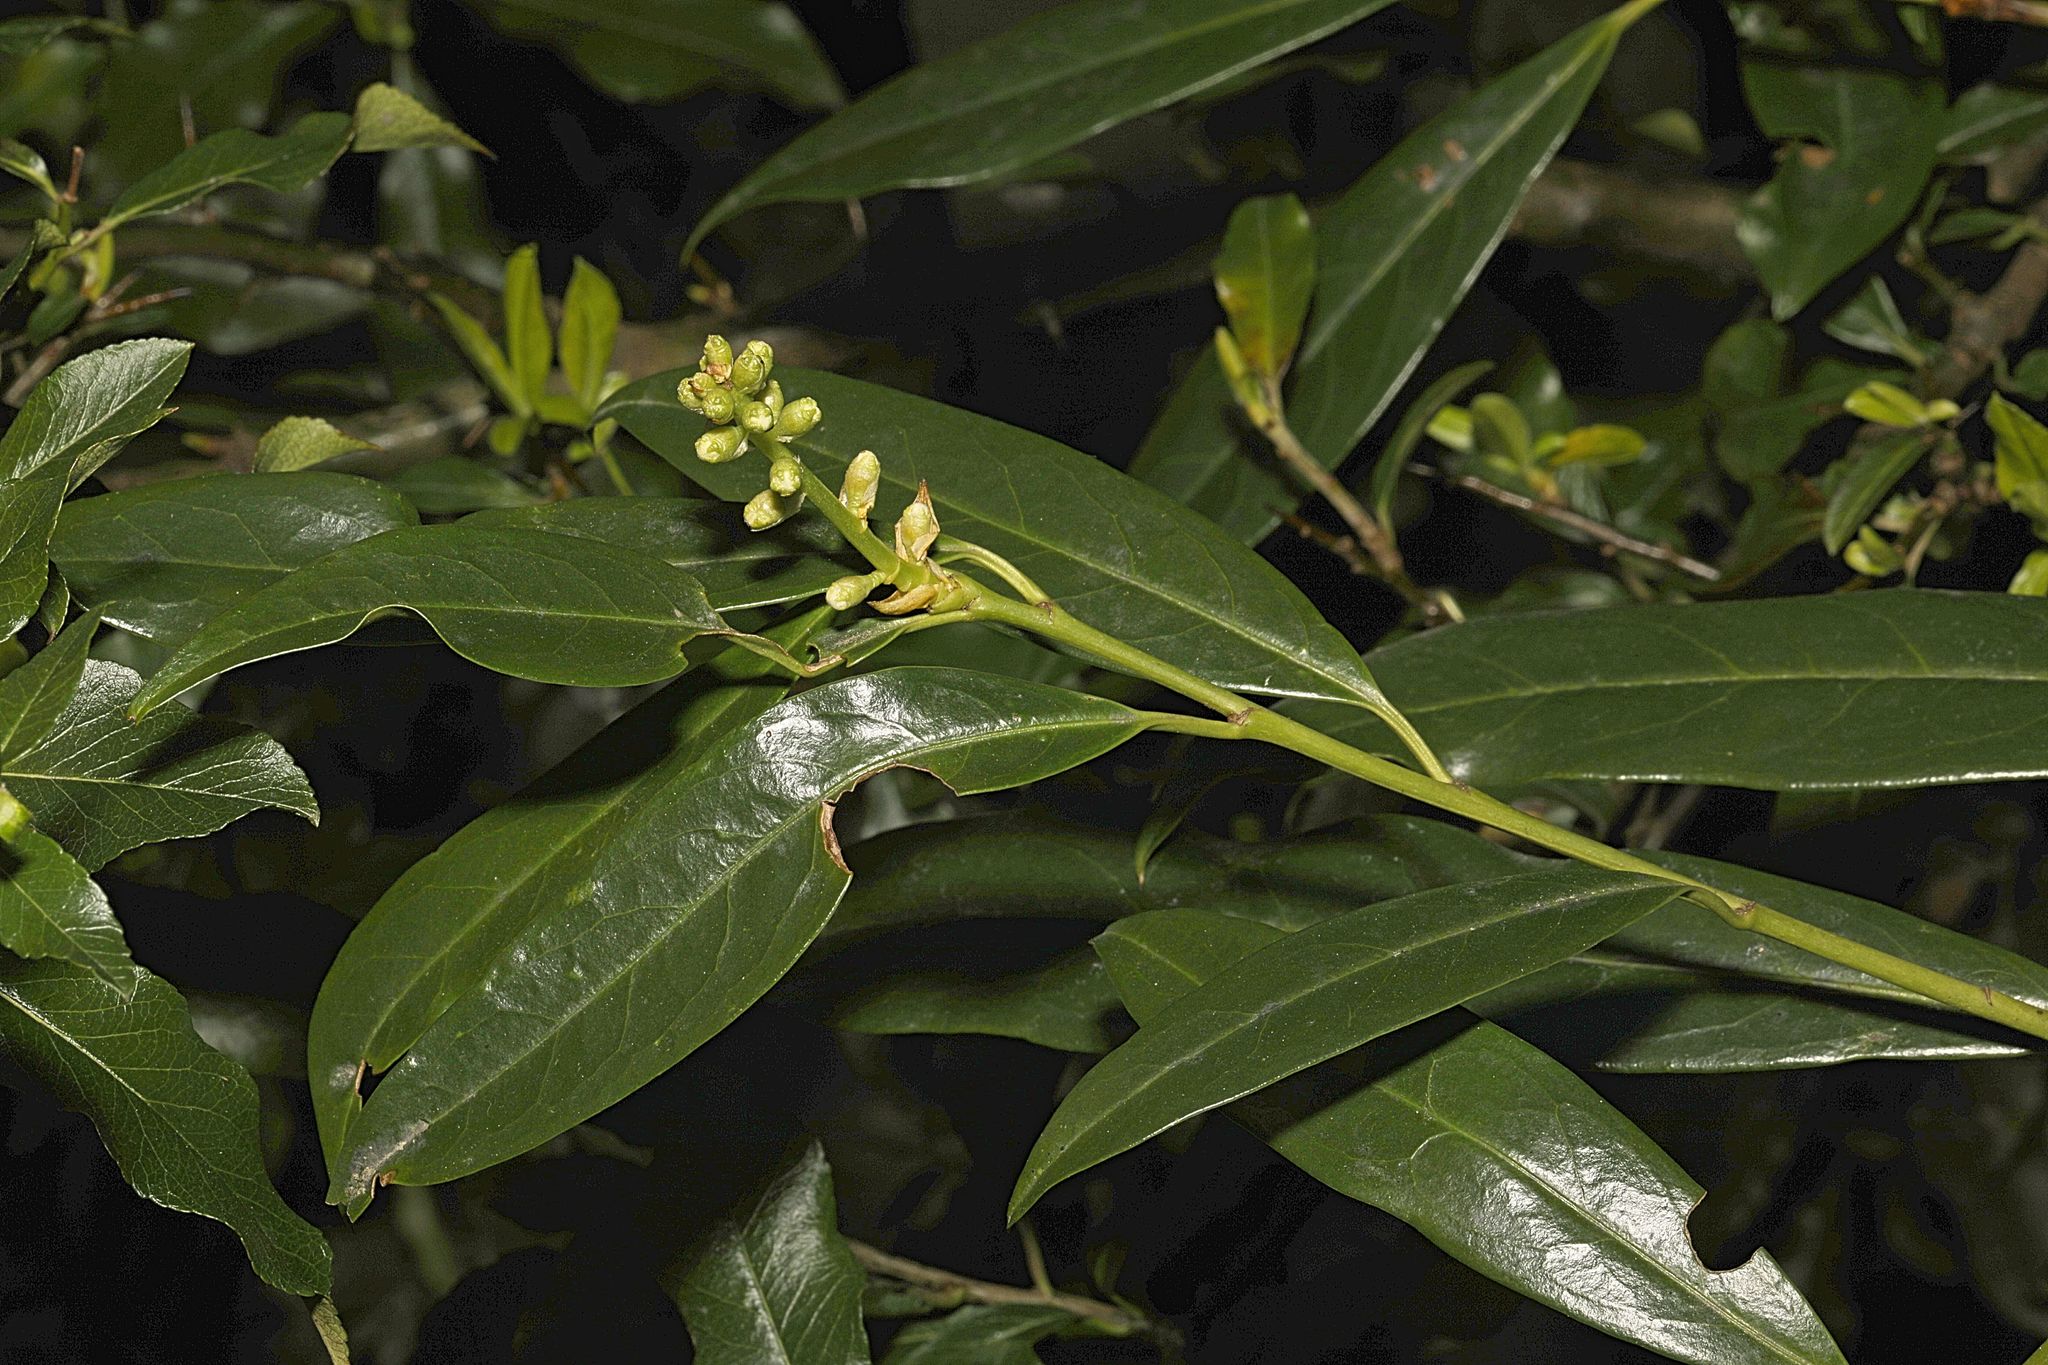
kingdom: Plantae
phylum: Tracheophyta
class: Magnoliopsida
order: Rosales
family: Rosaceae
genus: Prunus
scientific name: Prunus laurocerasus
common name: Cherry laurel
